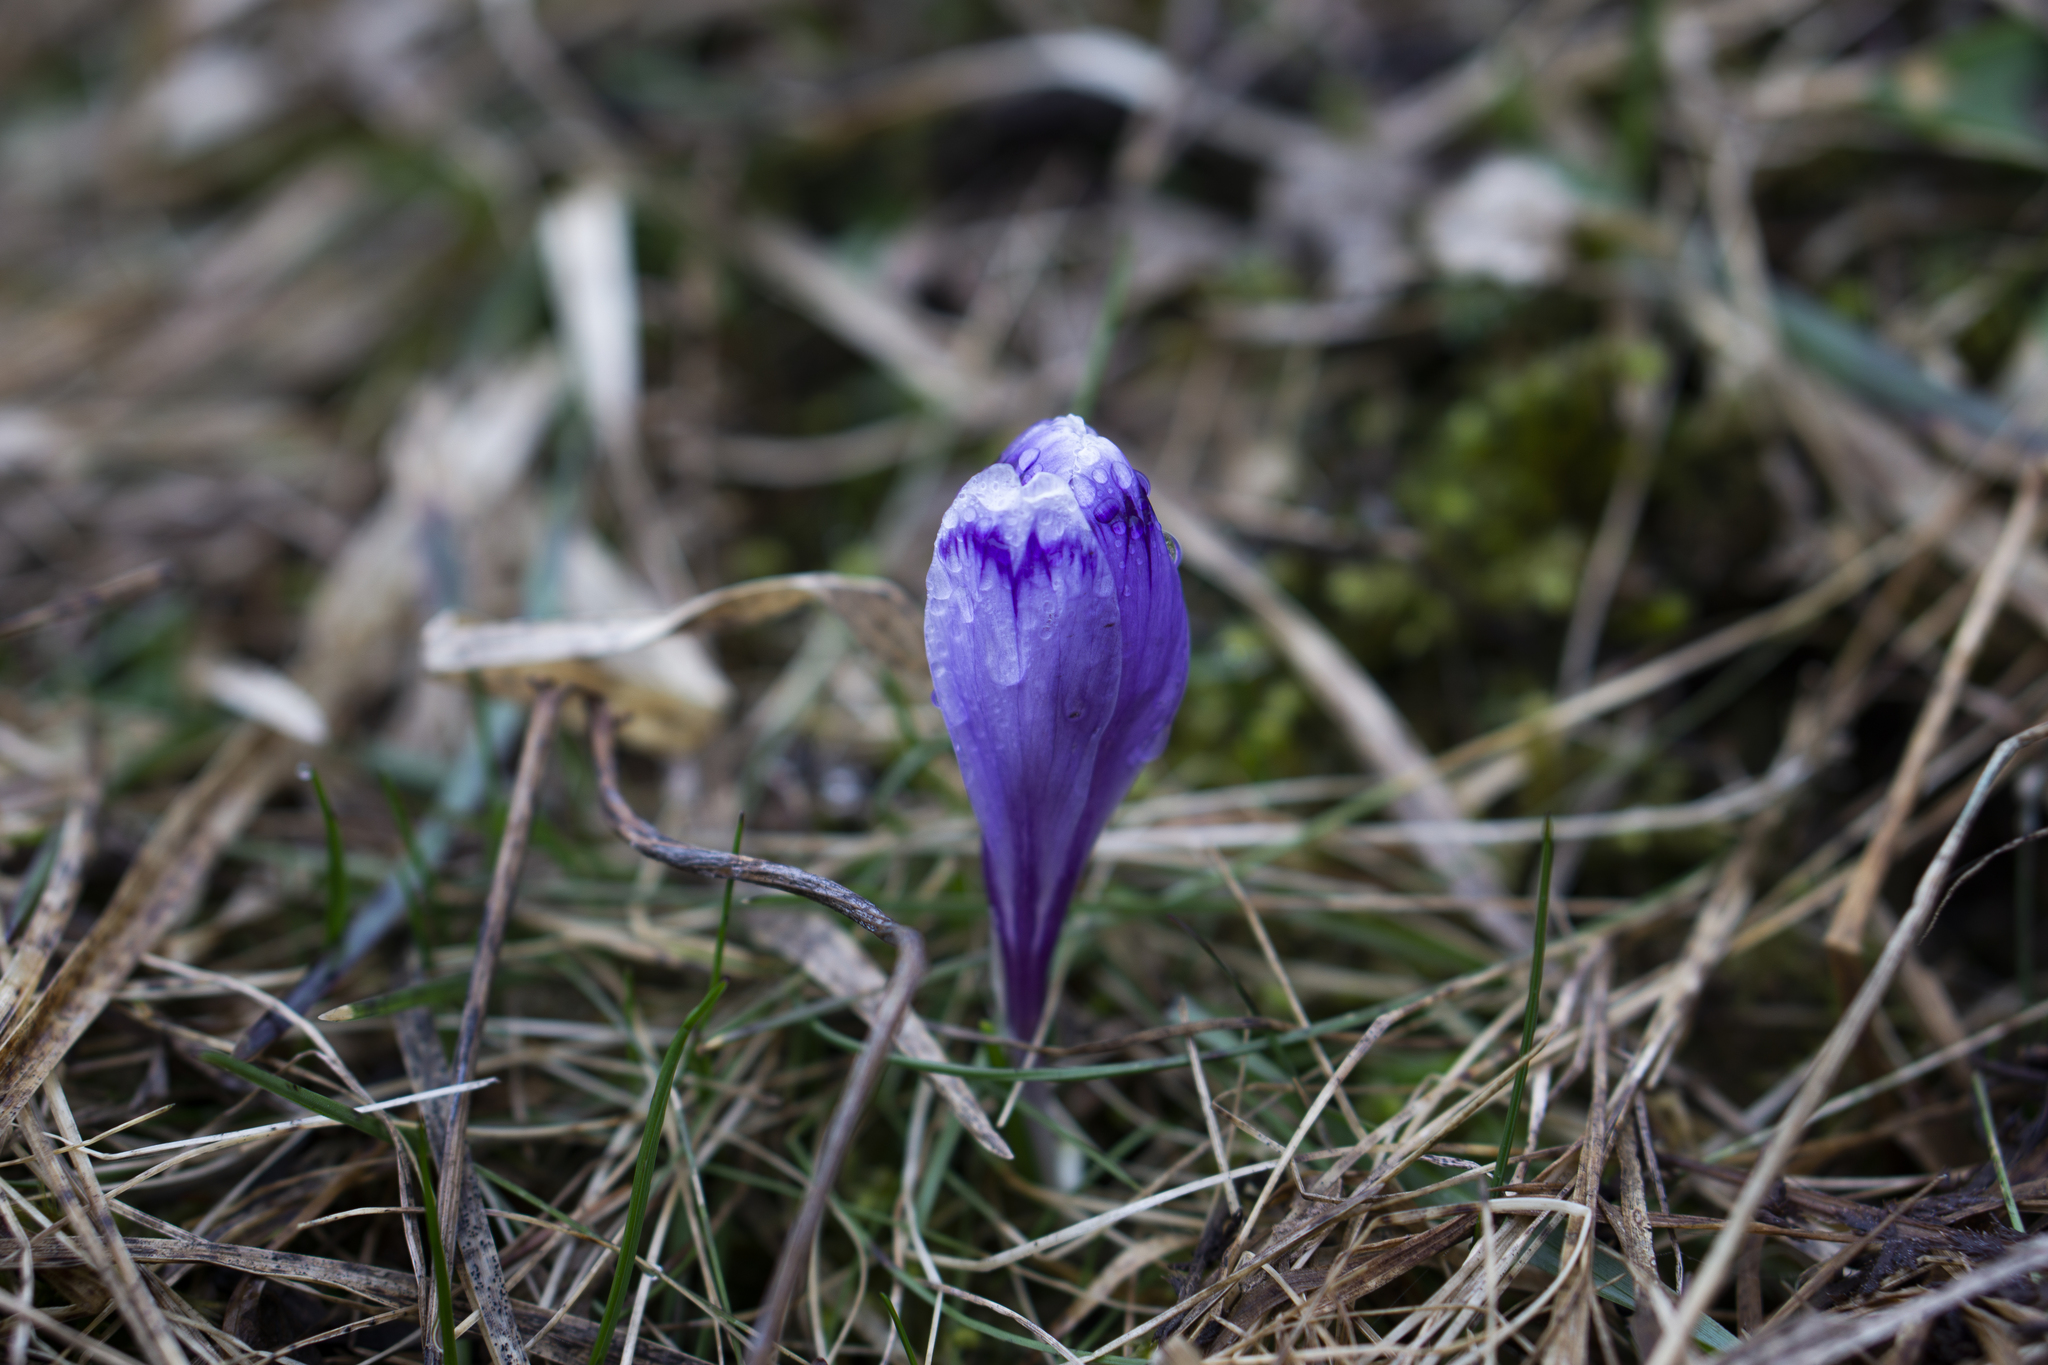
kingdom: Plantae
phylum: Tracheophyta
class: Liliopsida
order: Asparagales
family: Iridaceae
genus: Crocus
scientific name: Crocus heuffelianus
